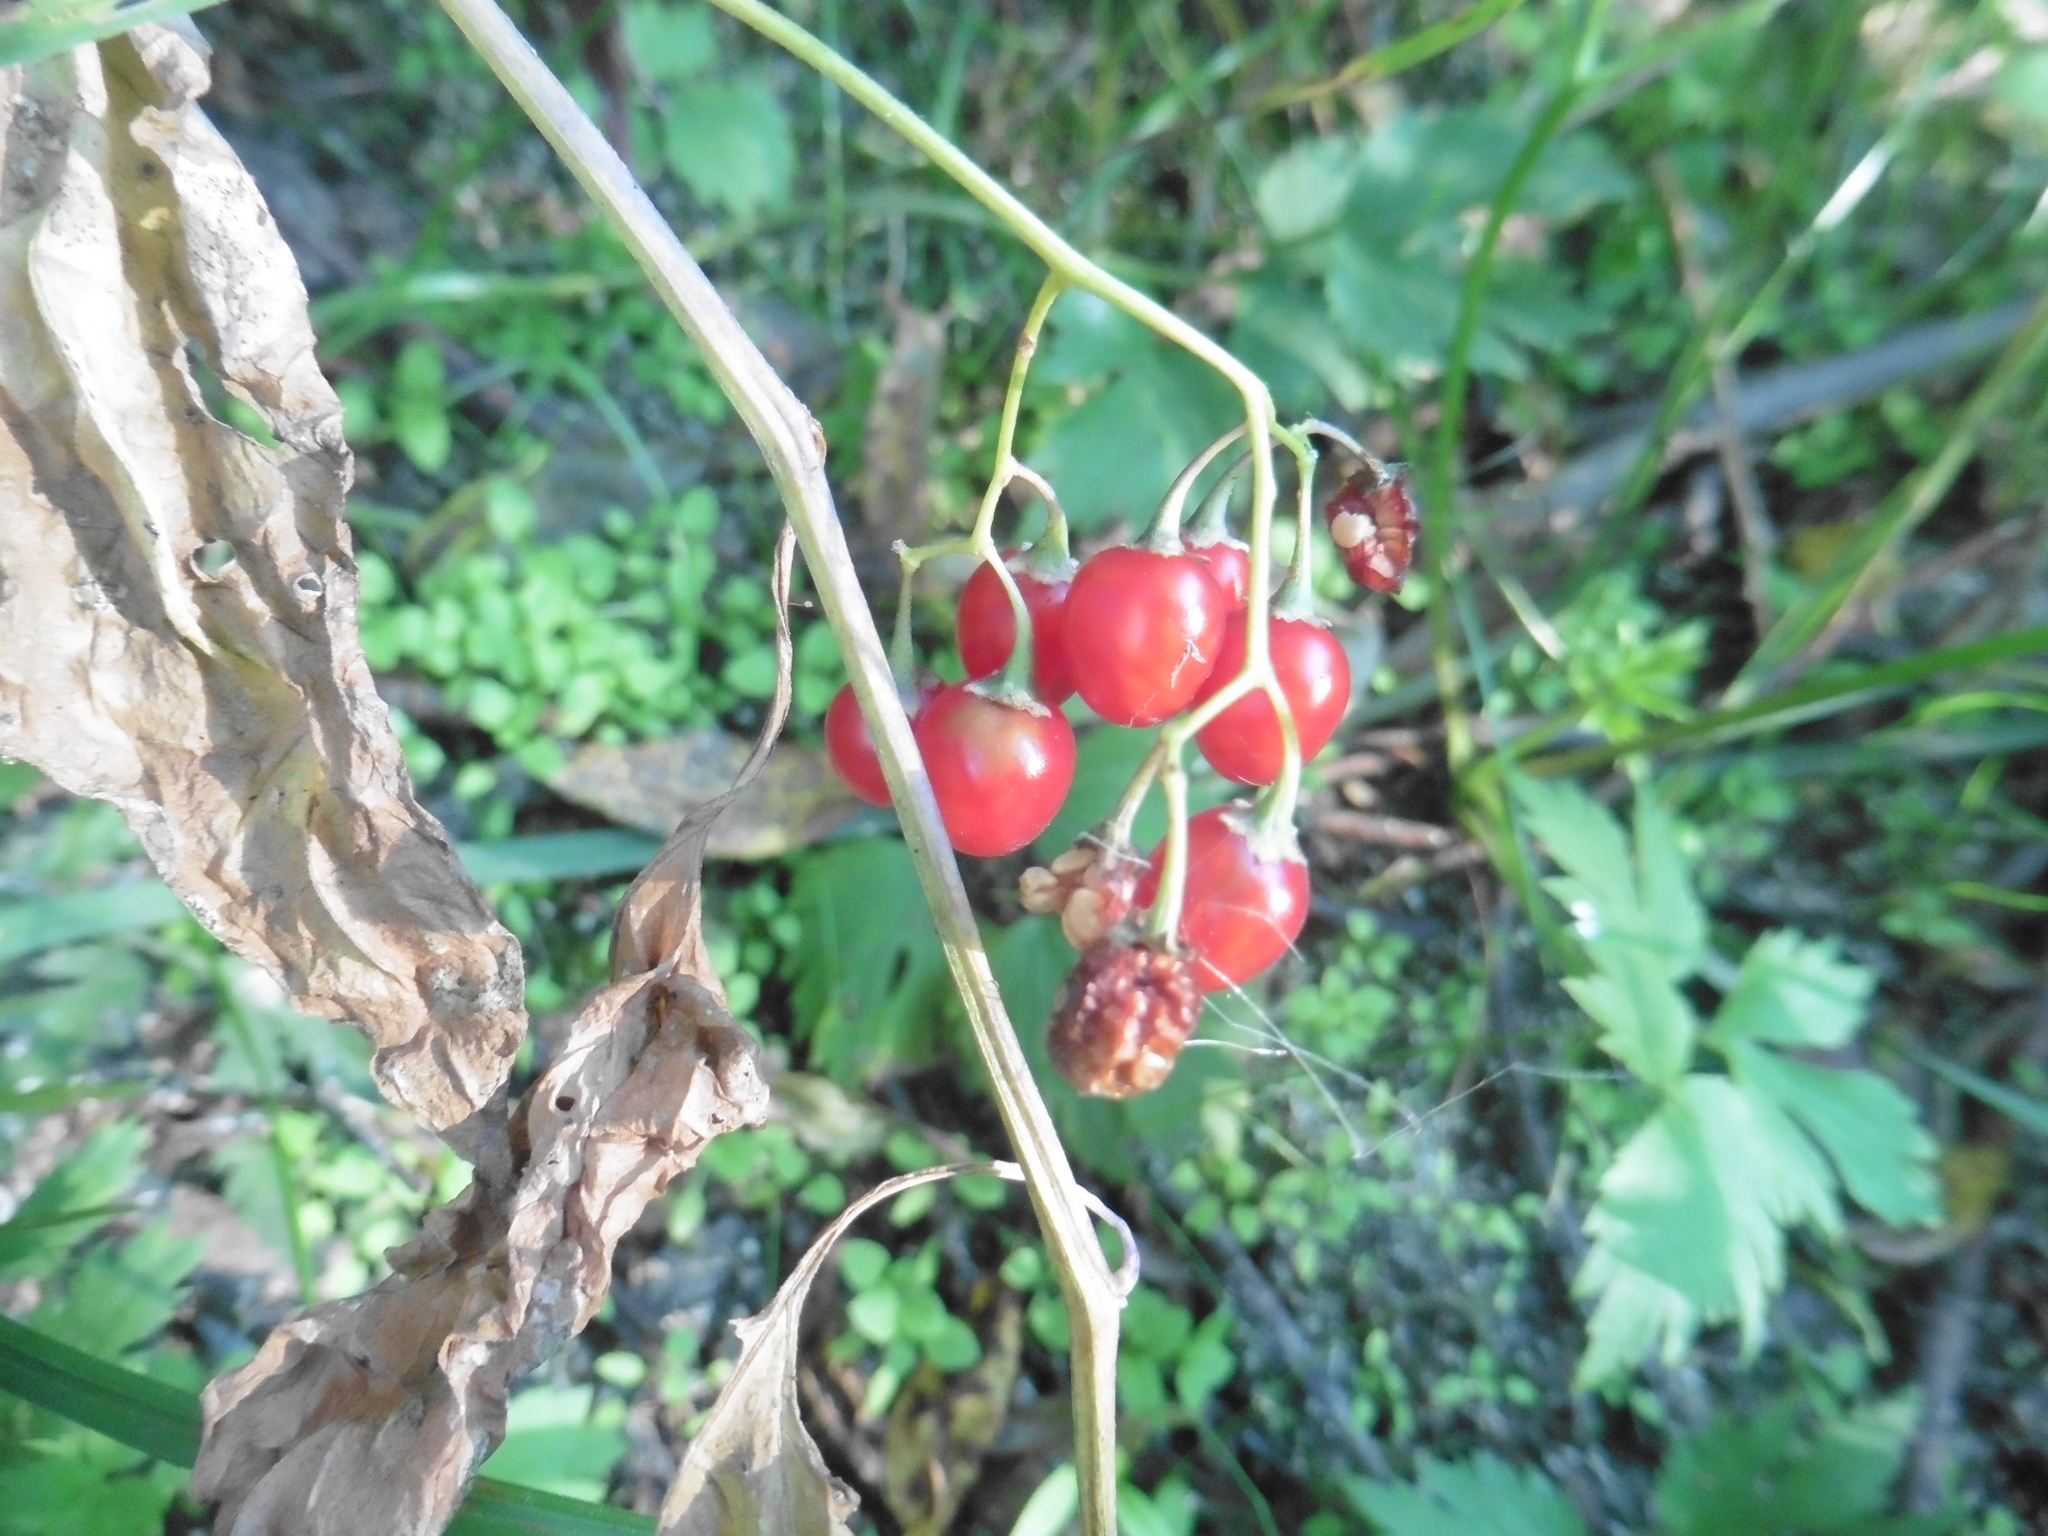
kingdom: Plantae
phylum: Tracheophyta
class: Magnoliopsida
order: Solanales
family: Solanaceae
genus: Solanum
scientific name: Solanum dulcamara
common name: Climbing nightshade
